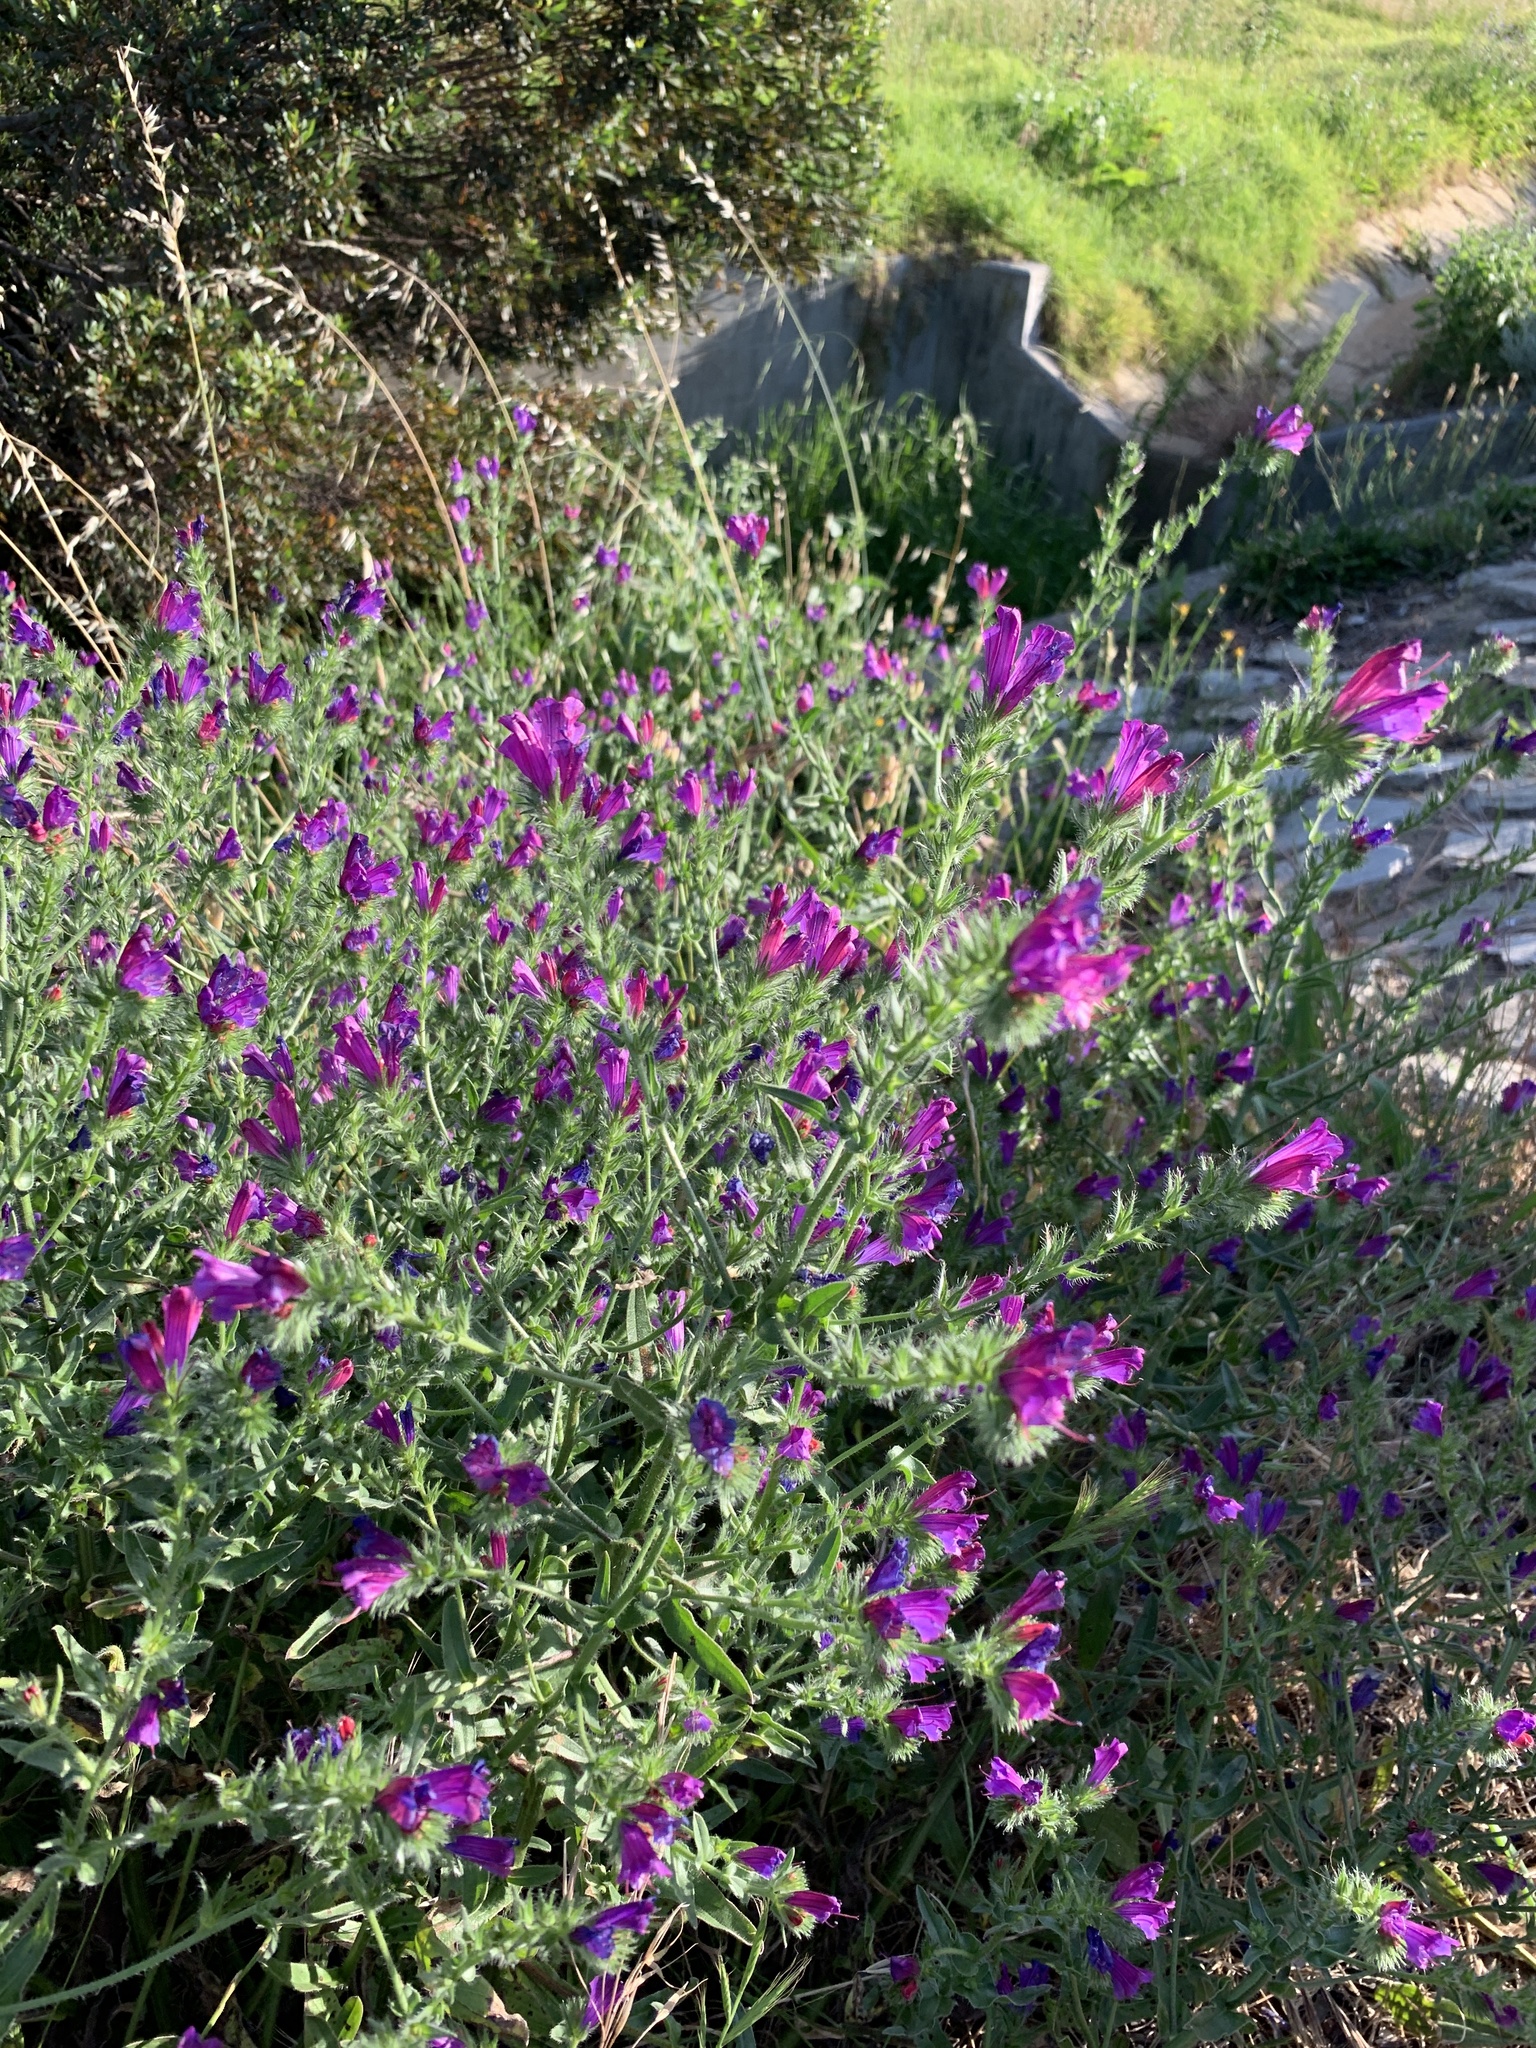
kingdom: Plantae
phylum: Tracheophyta
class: Magnoliopsida
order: Boraginales
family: Boraginaceae
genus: Echium
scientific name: Echium plantagineum
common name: Purple viper's-bugloss
